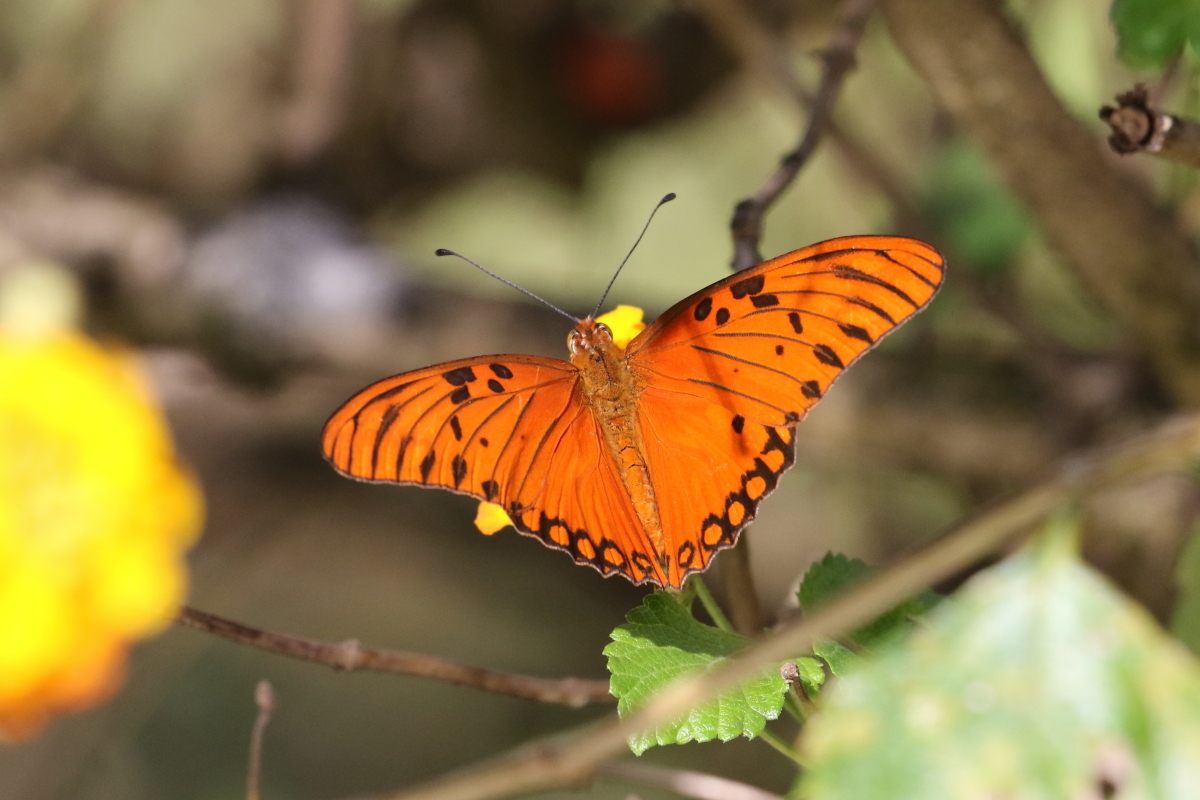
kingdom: Animalia
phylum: Arthropoda
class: Insecta
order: Lepidoptera
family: Nymphalidae
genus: Dione
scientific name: Dione vanillae
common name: Gulf fritillary
